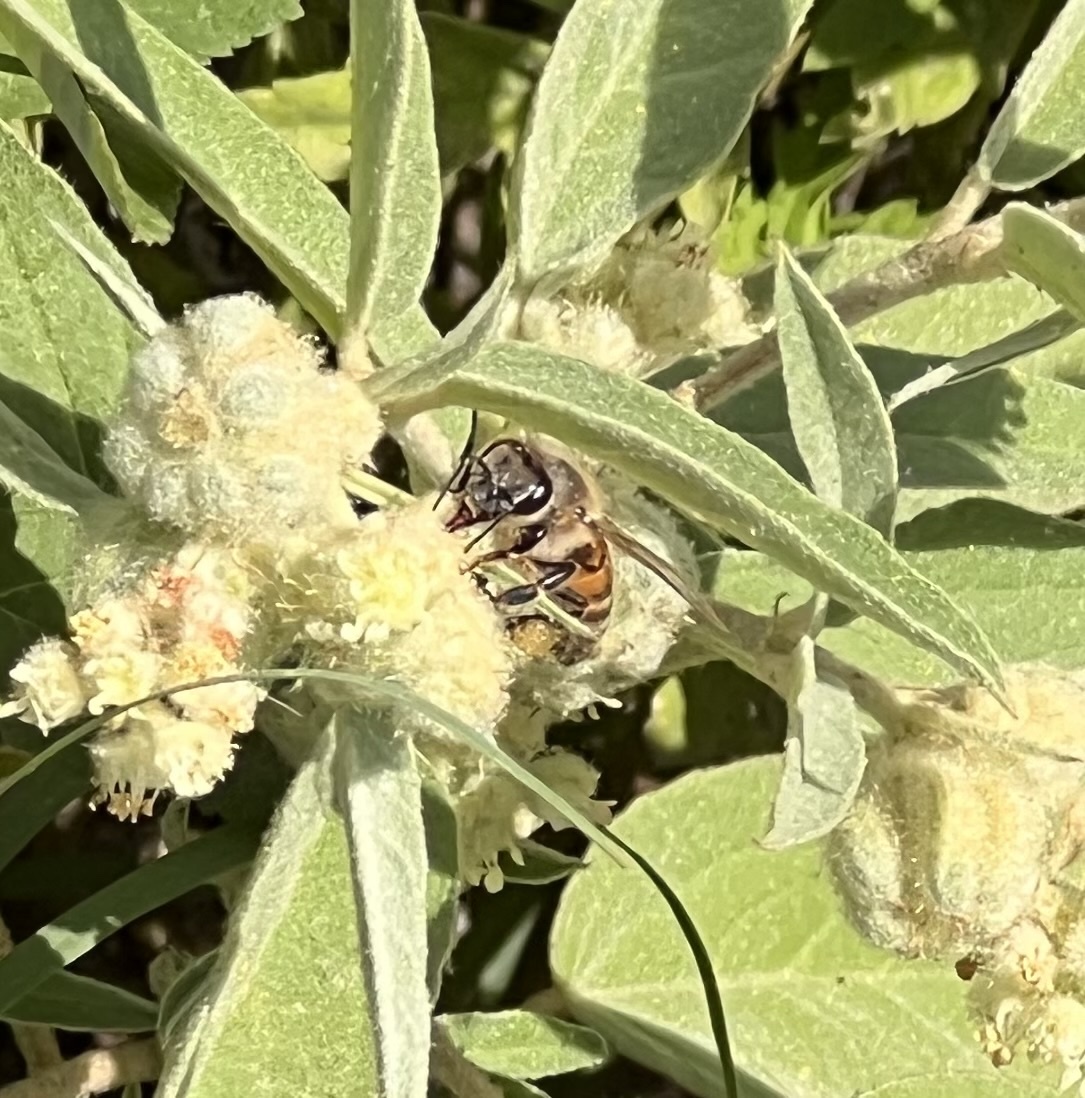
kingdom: Animalia
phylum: Arthropoda
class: Insecta
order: Hymenoptera
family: Apidae
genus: Apis
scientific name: Apis mellifera
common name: Honey bee
